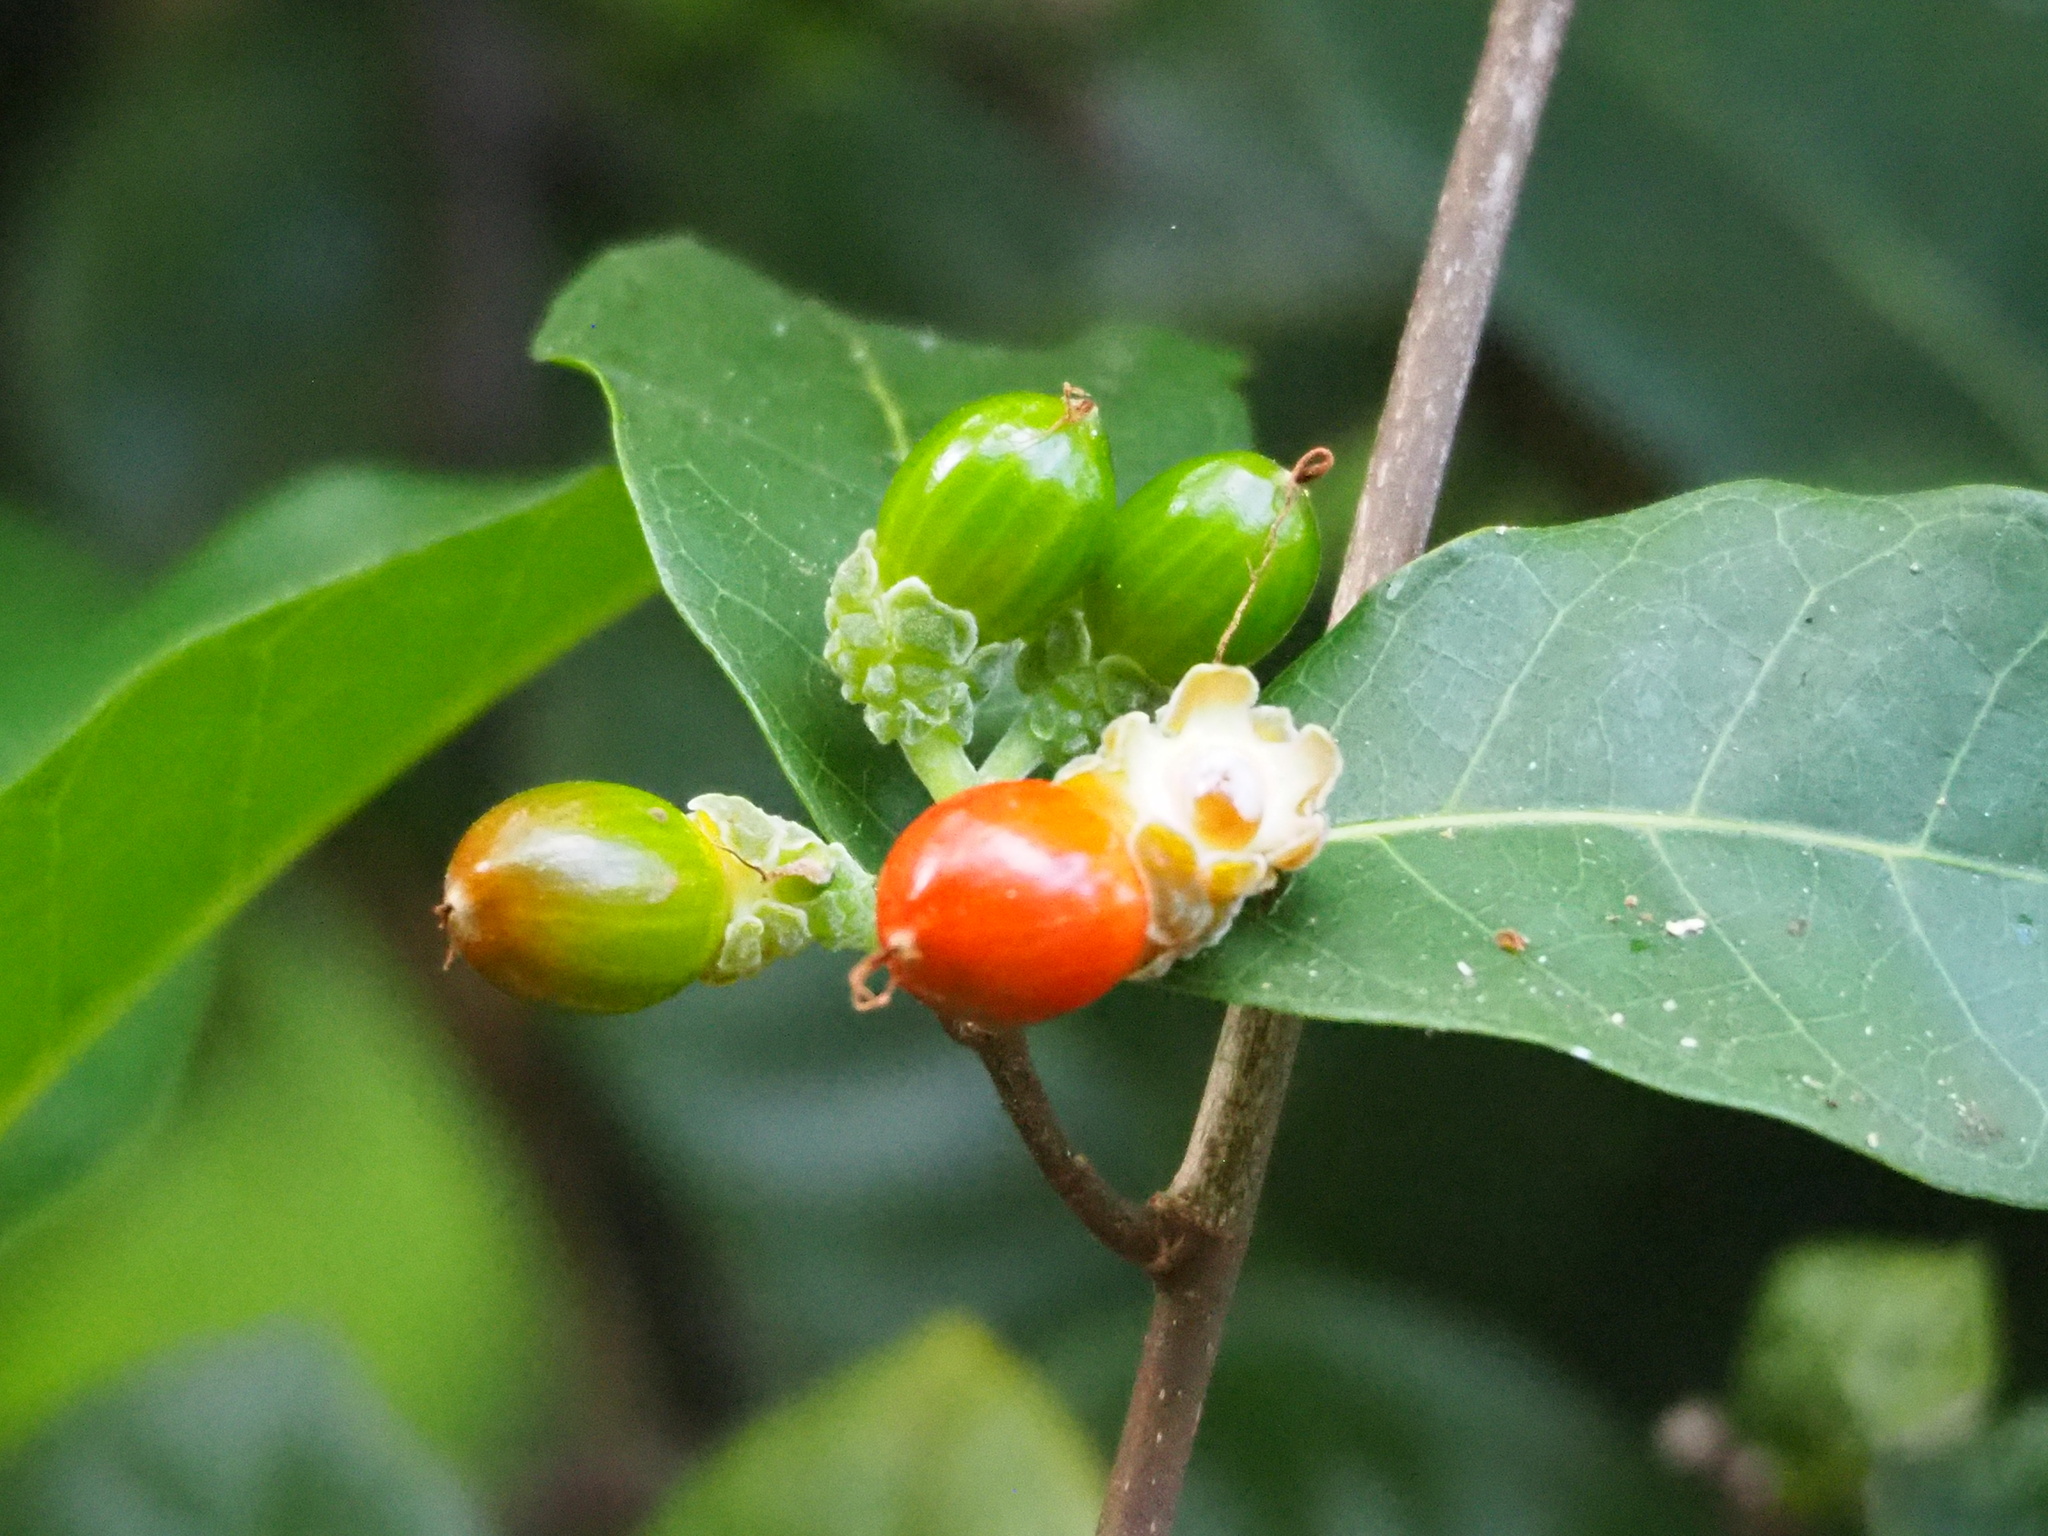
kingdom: Plantae
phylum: Tracheophyta
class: Magnoliopsida
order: Rosales
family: Moraceae
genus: Malaisia
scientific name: Malaisia scandens
